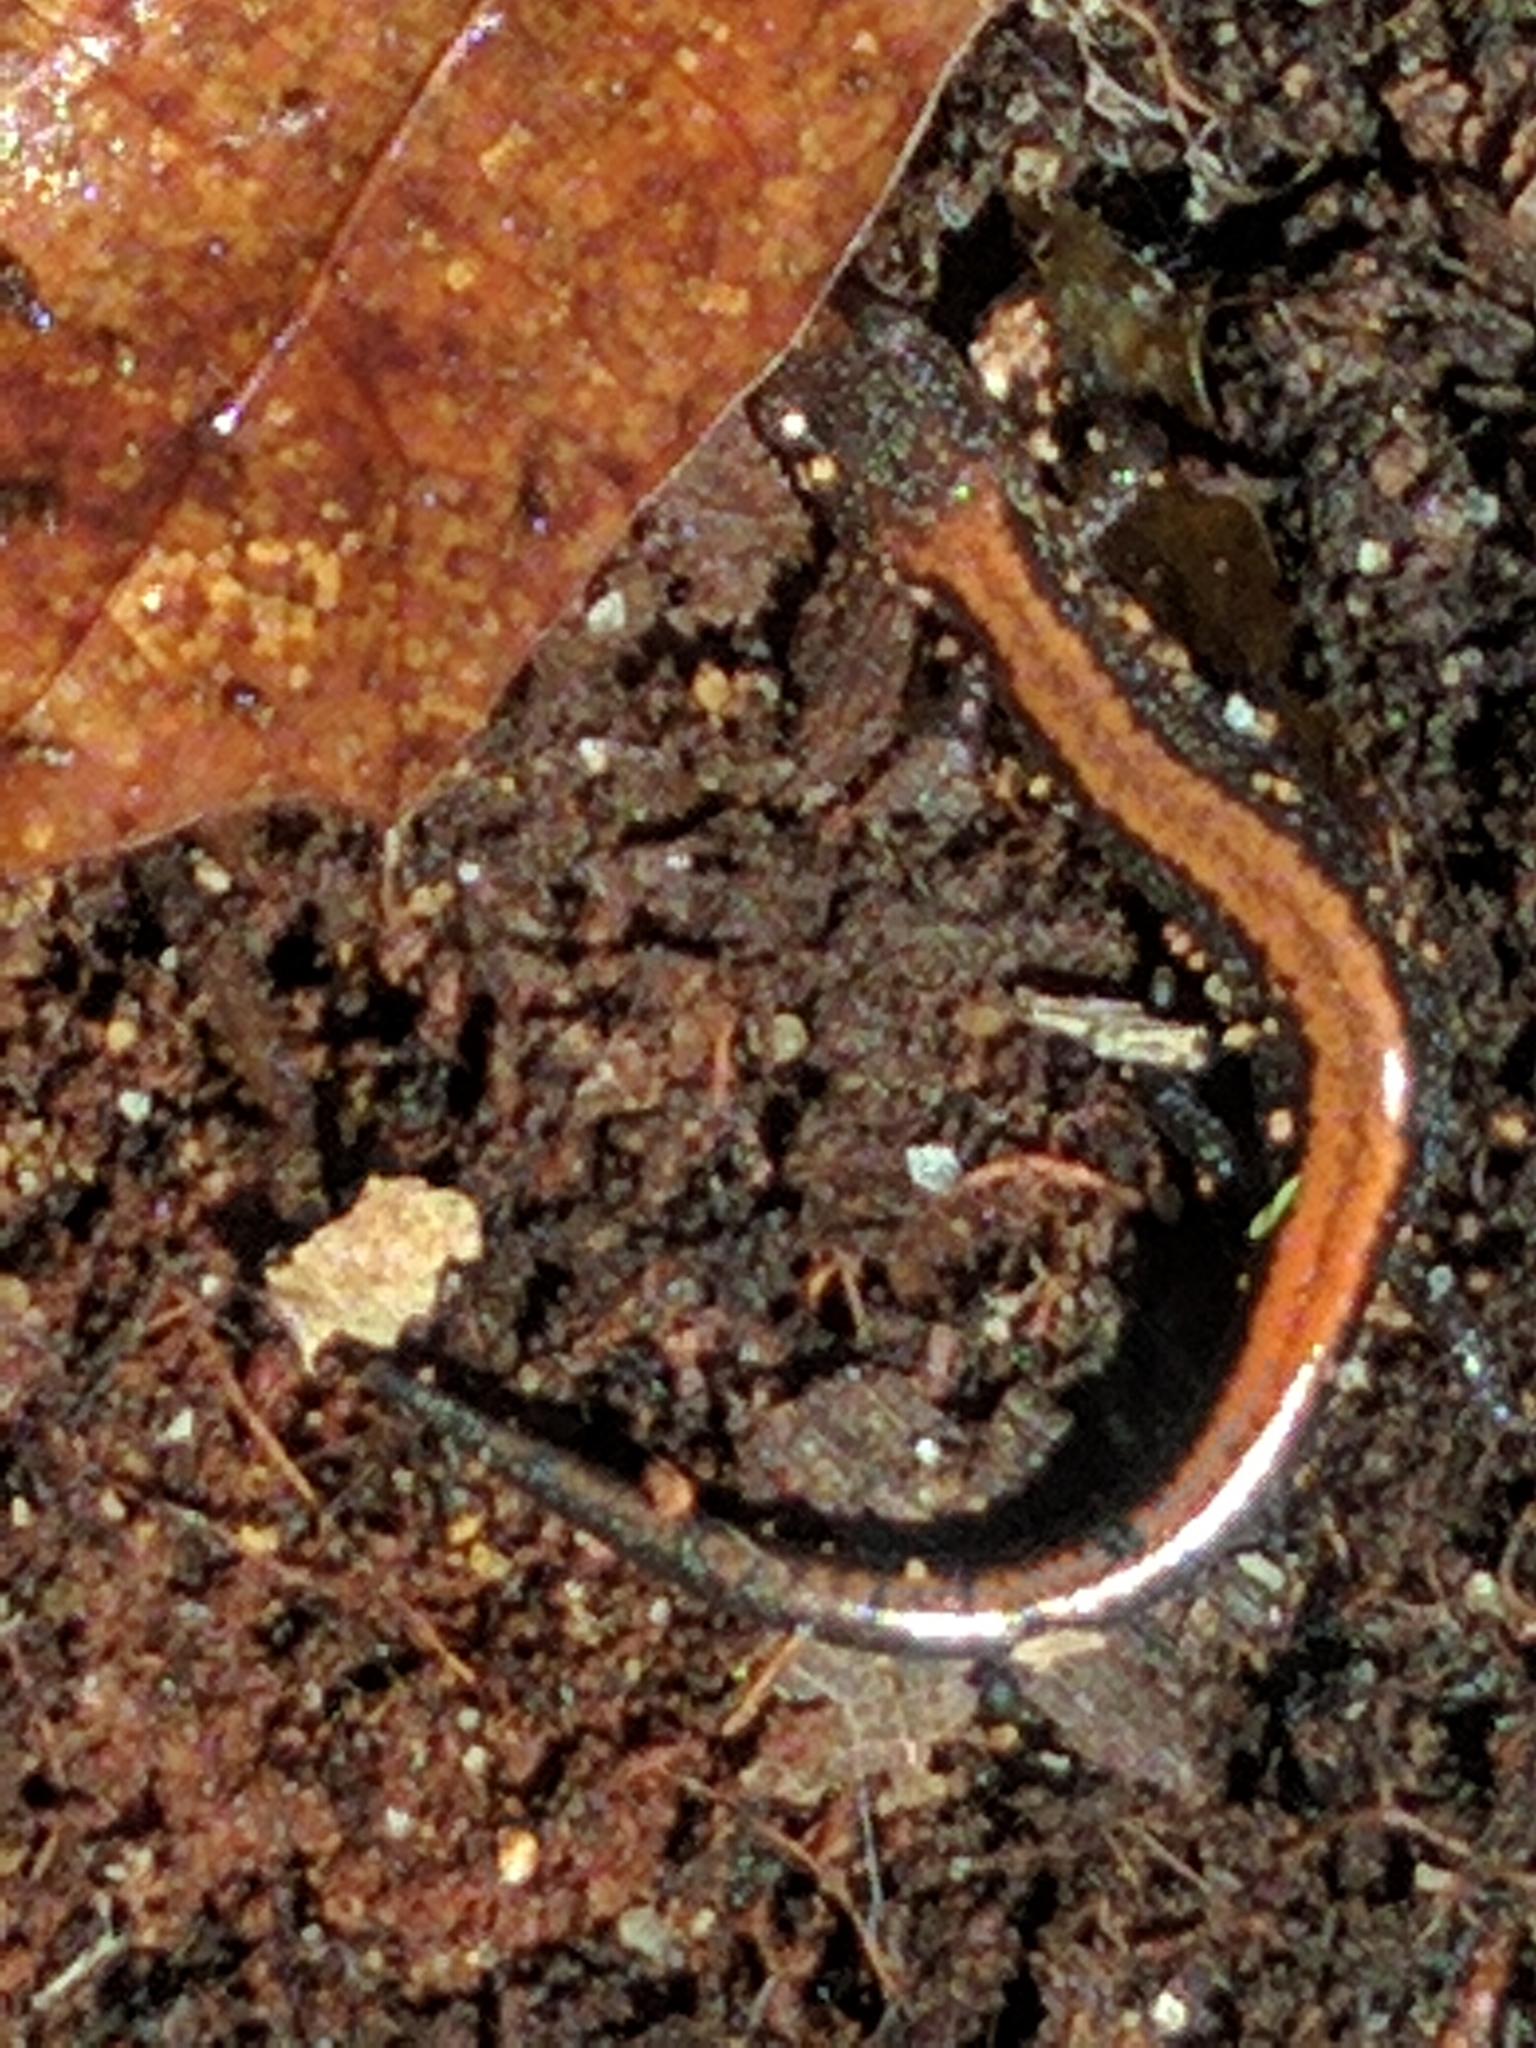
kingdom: Animalia
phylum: Chordata
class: Amphibia
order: Caudata
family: Plethodontidae
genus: Plethodon
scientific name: Plethodon cinereus
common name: Redback salamander
